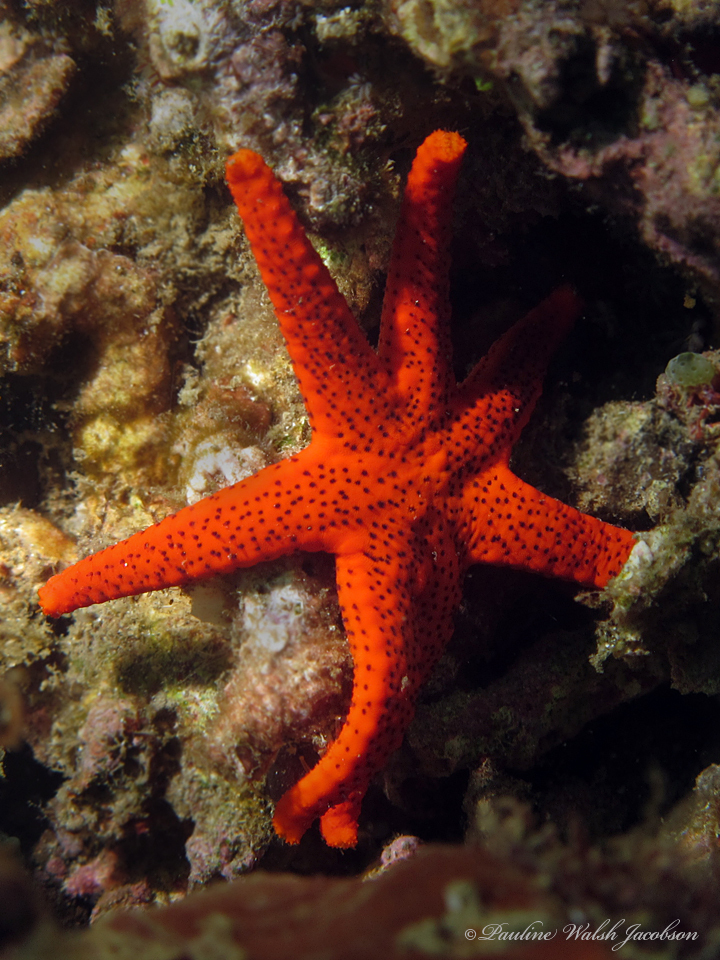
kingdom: Animalia
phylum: Echinodermata
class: Asteroidea
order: Valvatida
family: Goniasteridae
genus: Fromia
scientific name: Fromia milleporella
